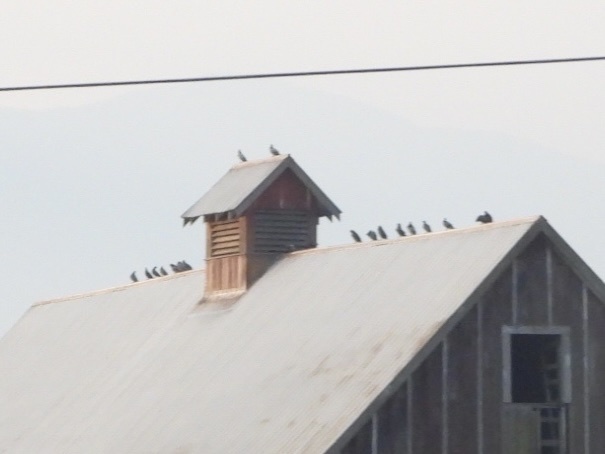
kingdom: Animalia
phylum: Chordata
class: Aves
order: Columbiformes
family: Columbidae
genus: Columba
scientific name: Columba livia
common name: Rock pigeon
